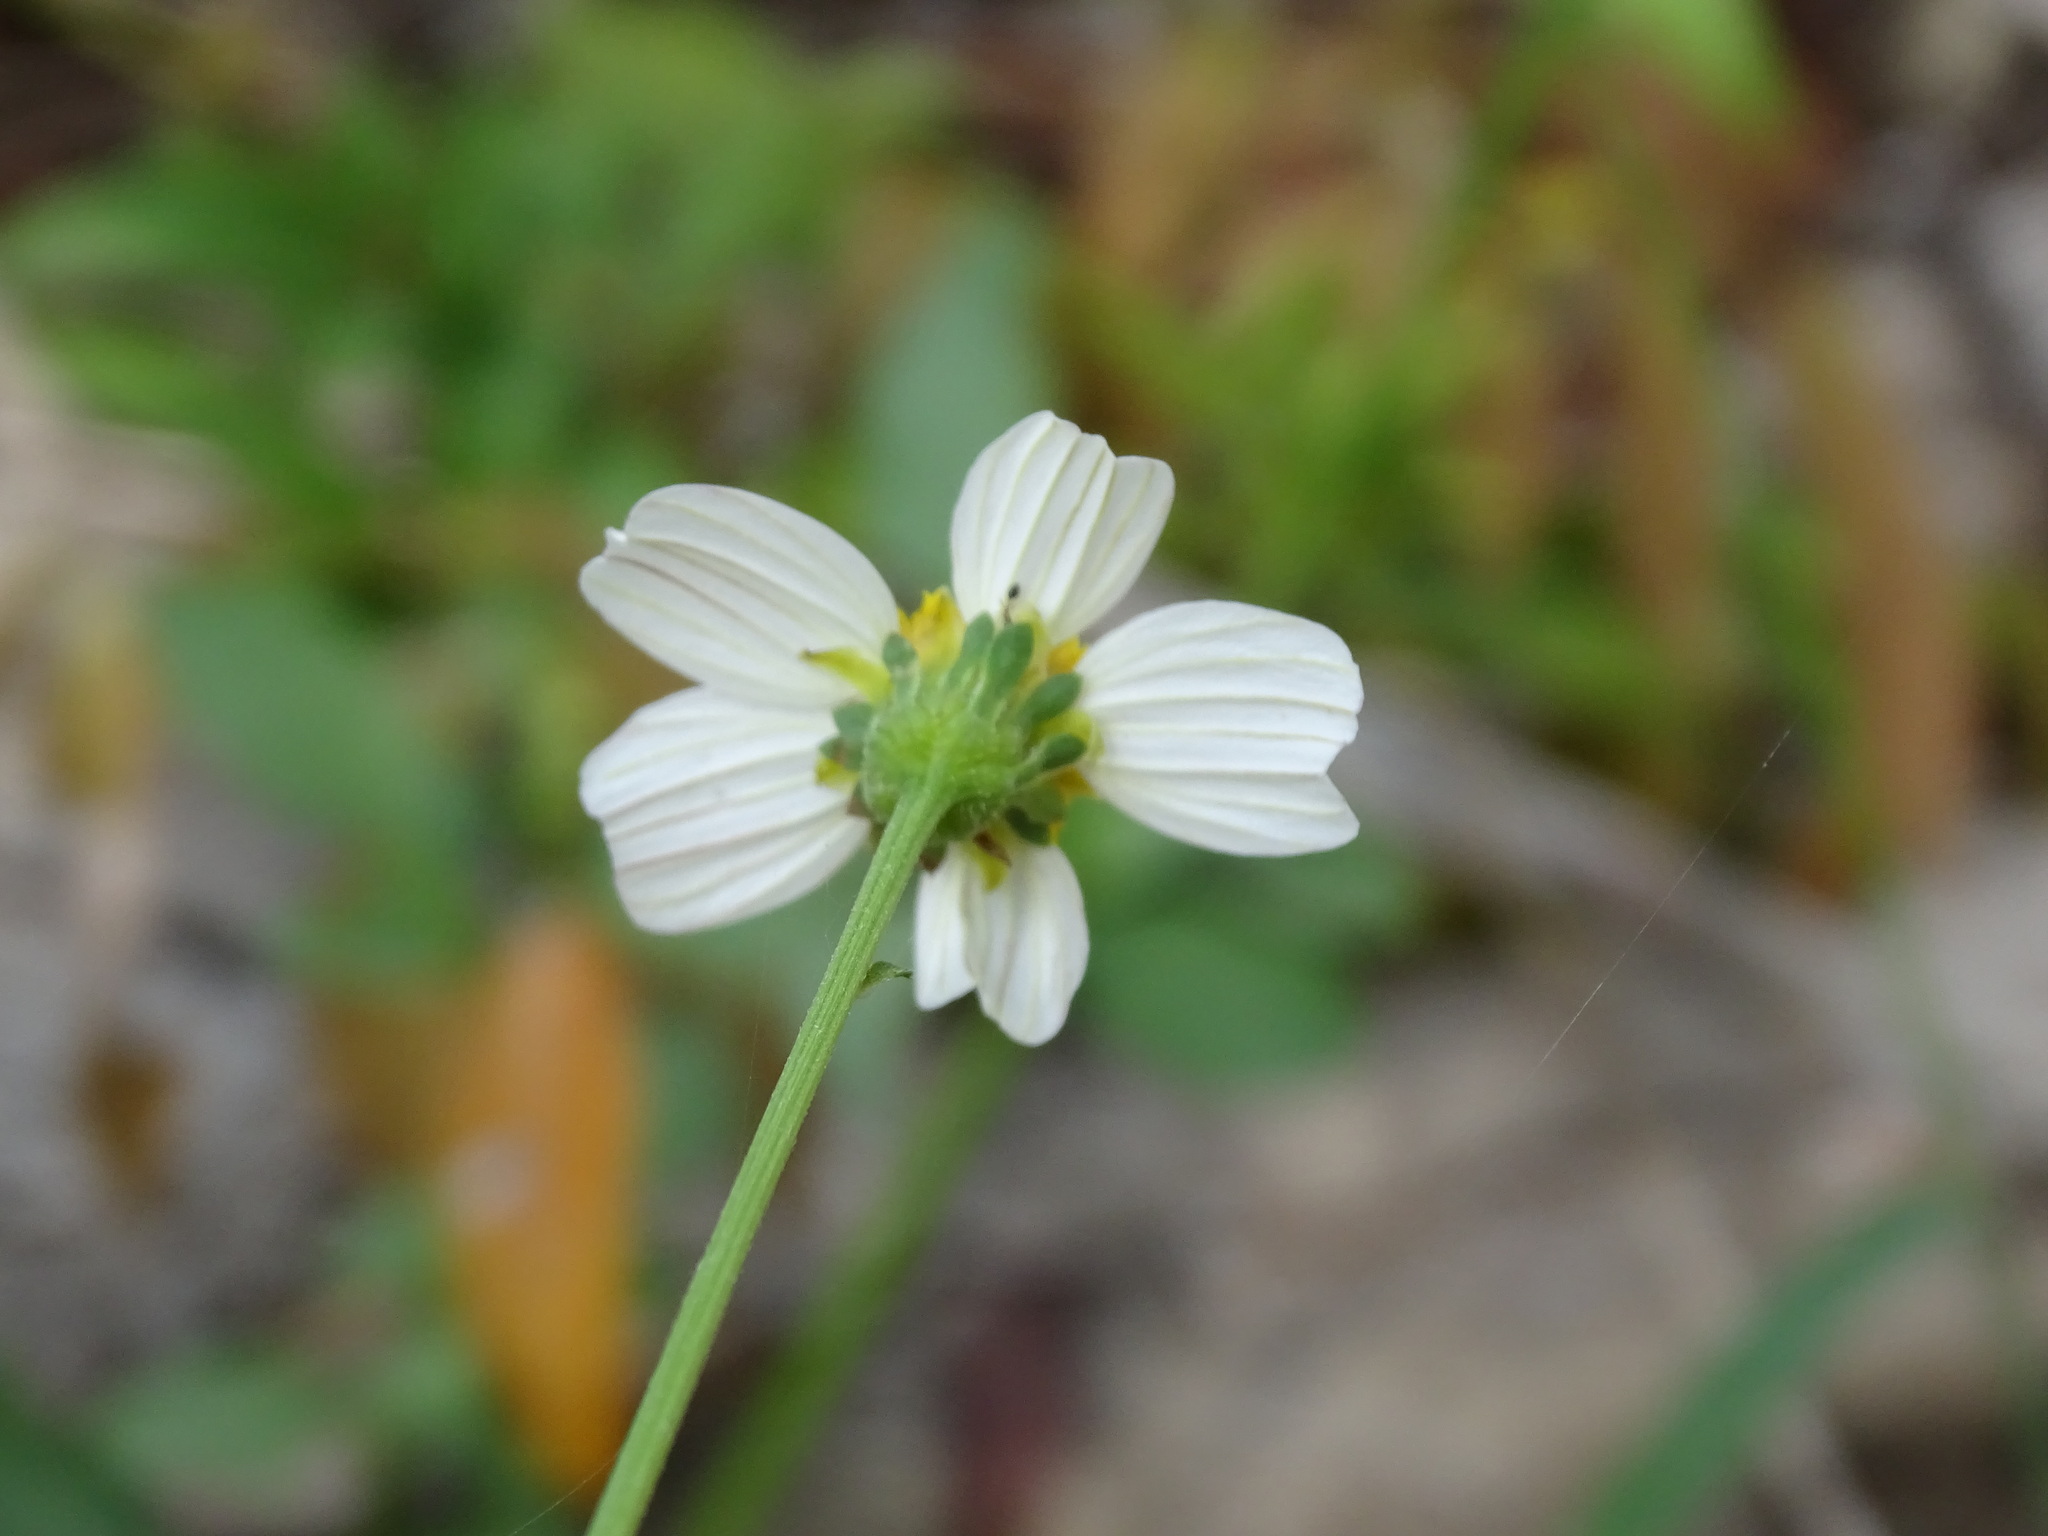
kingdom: Plantae
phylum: Tracheophyta
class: Magnoliopsida
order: Asterales
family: Asteraceae
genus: Bidens
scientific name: Bidens alba
